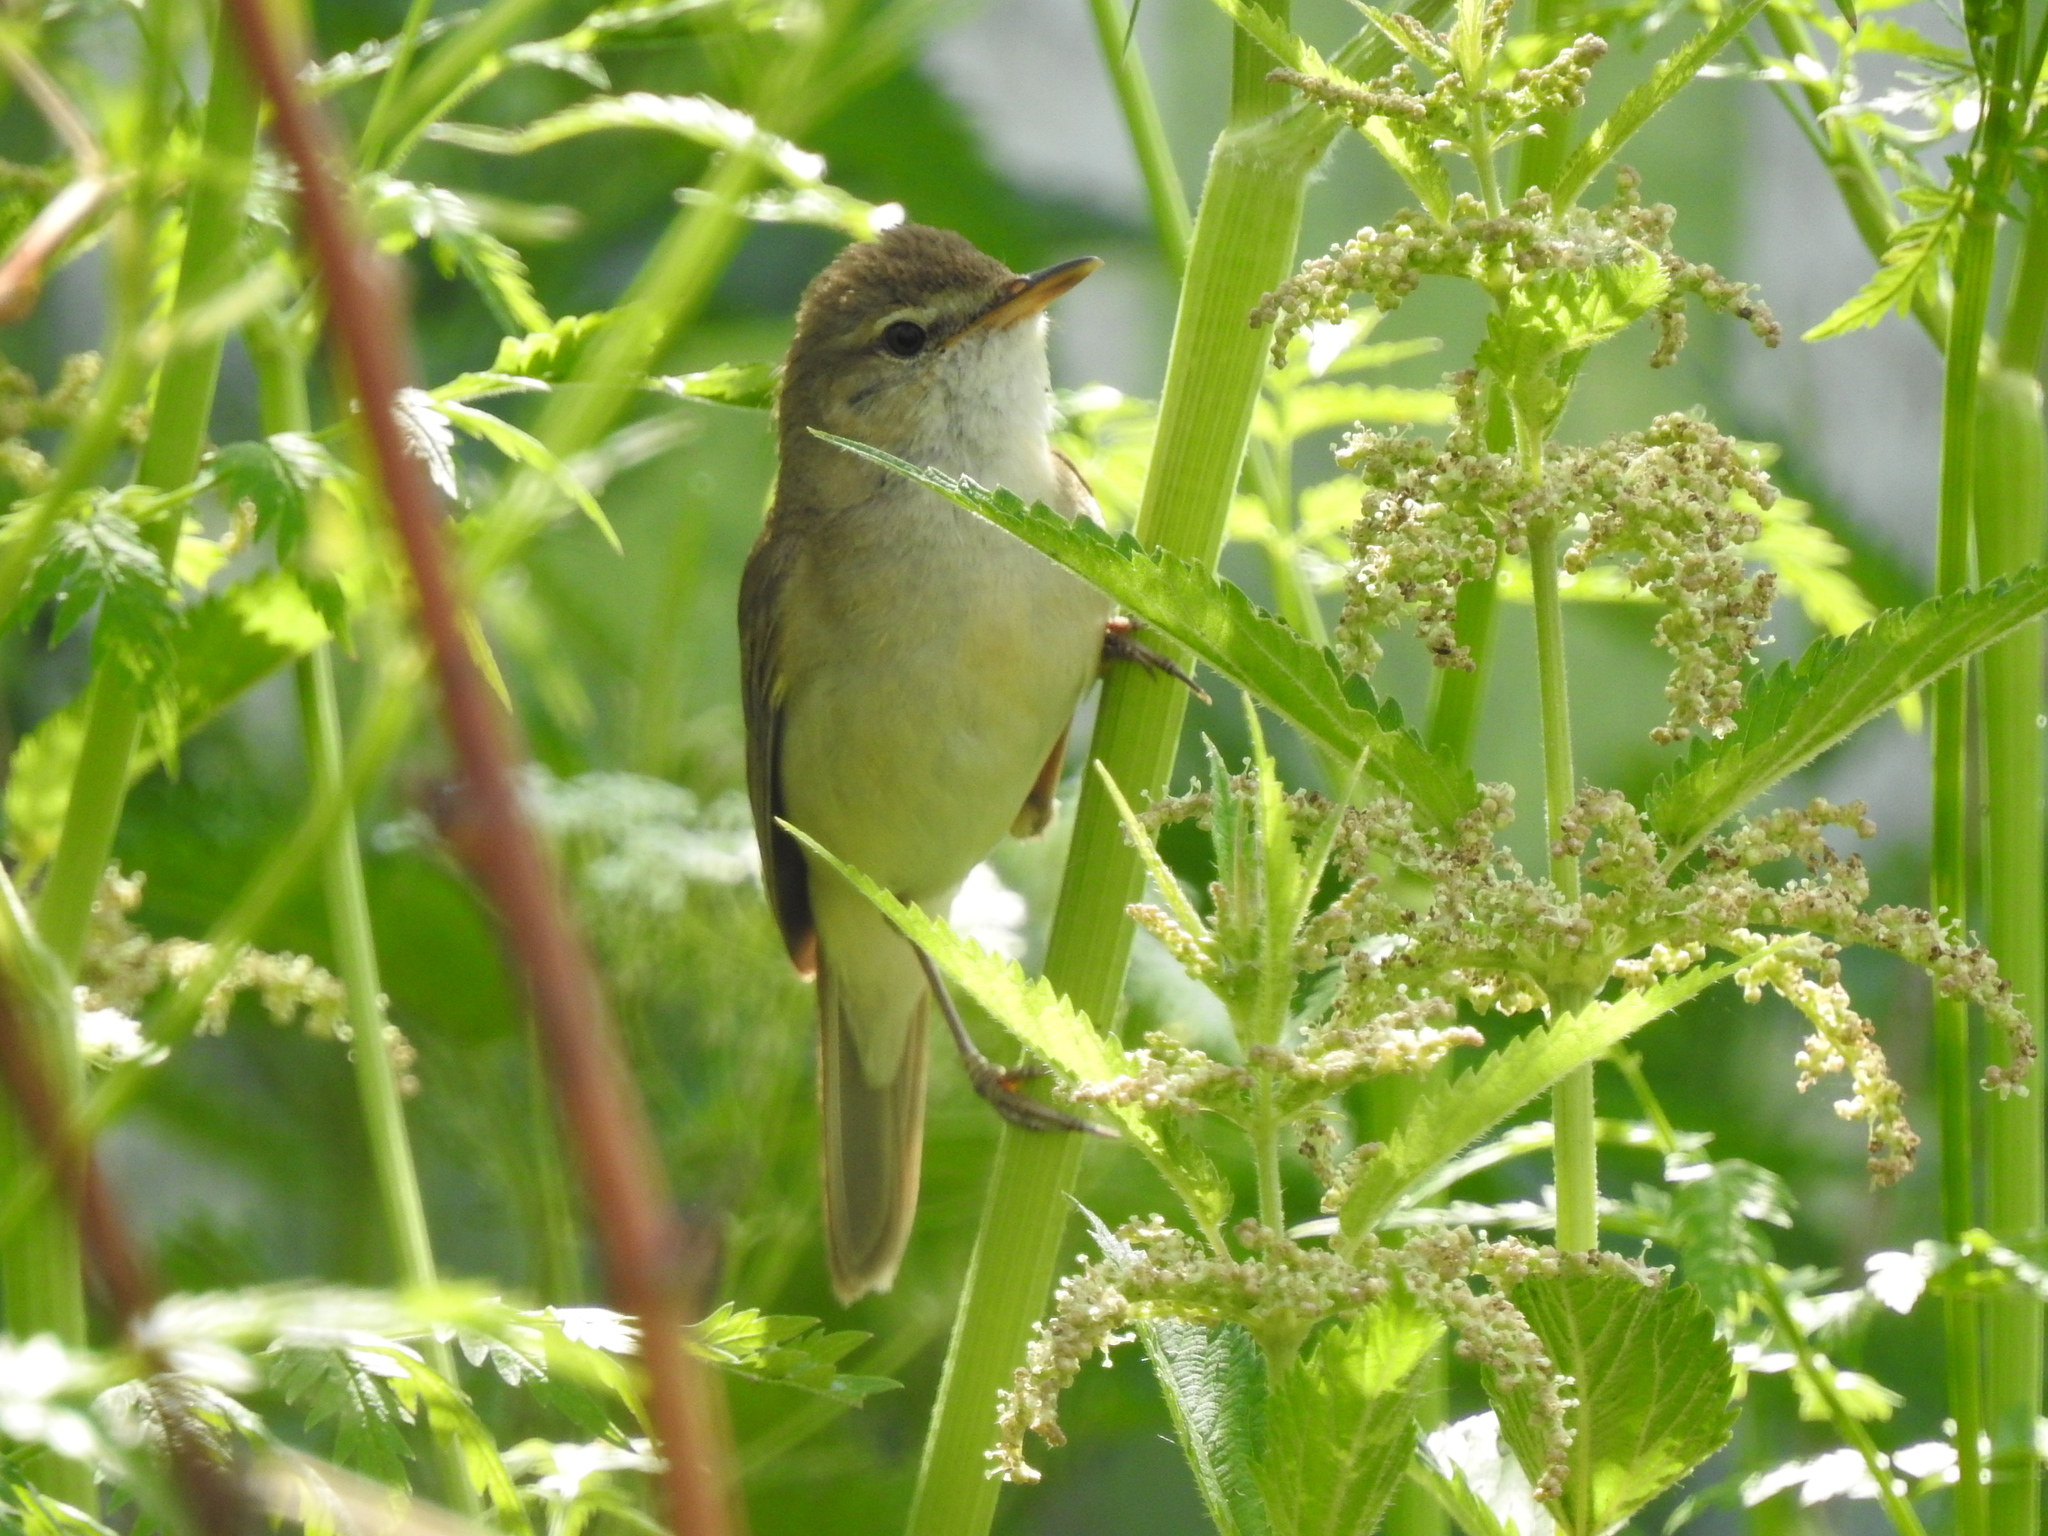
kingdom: Animalia
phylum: Chordata
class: Aves
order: Passeriformes
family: Acrocephalidae
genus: Acrocephalus
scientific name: Acrocephalus dumetorum
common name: Blyth's reed warbler
